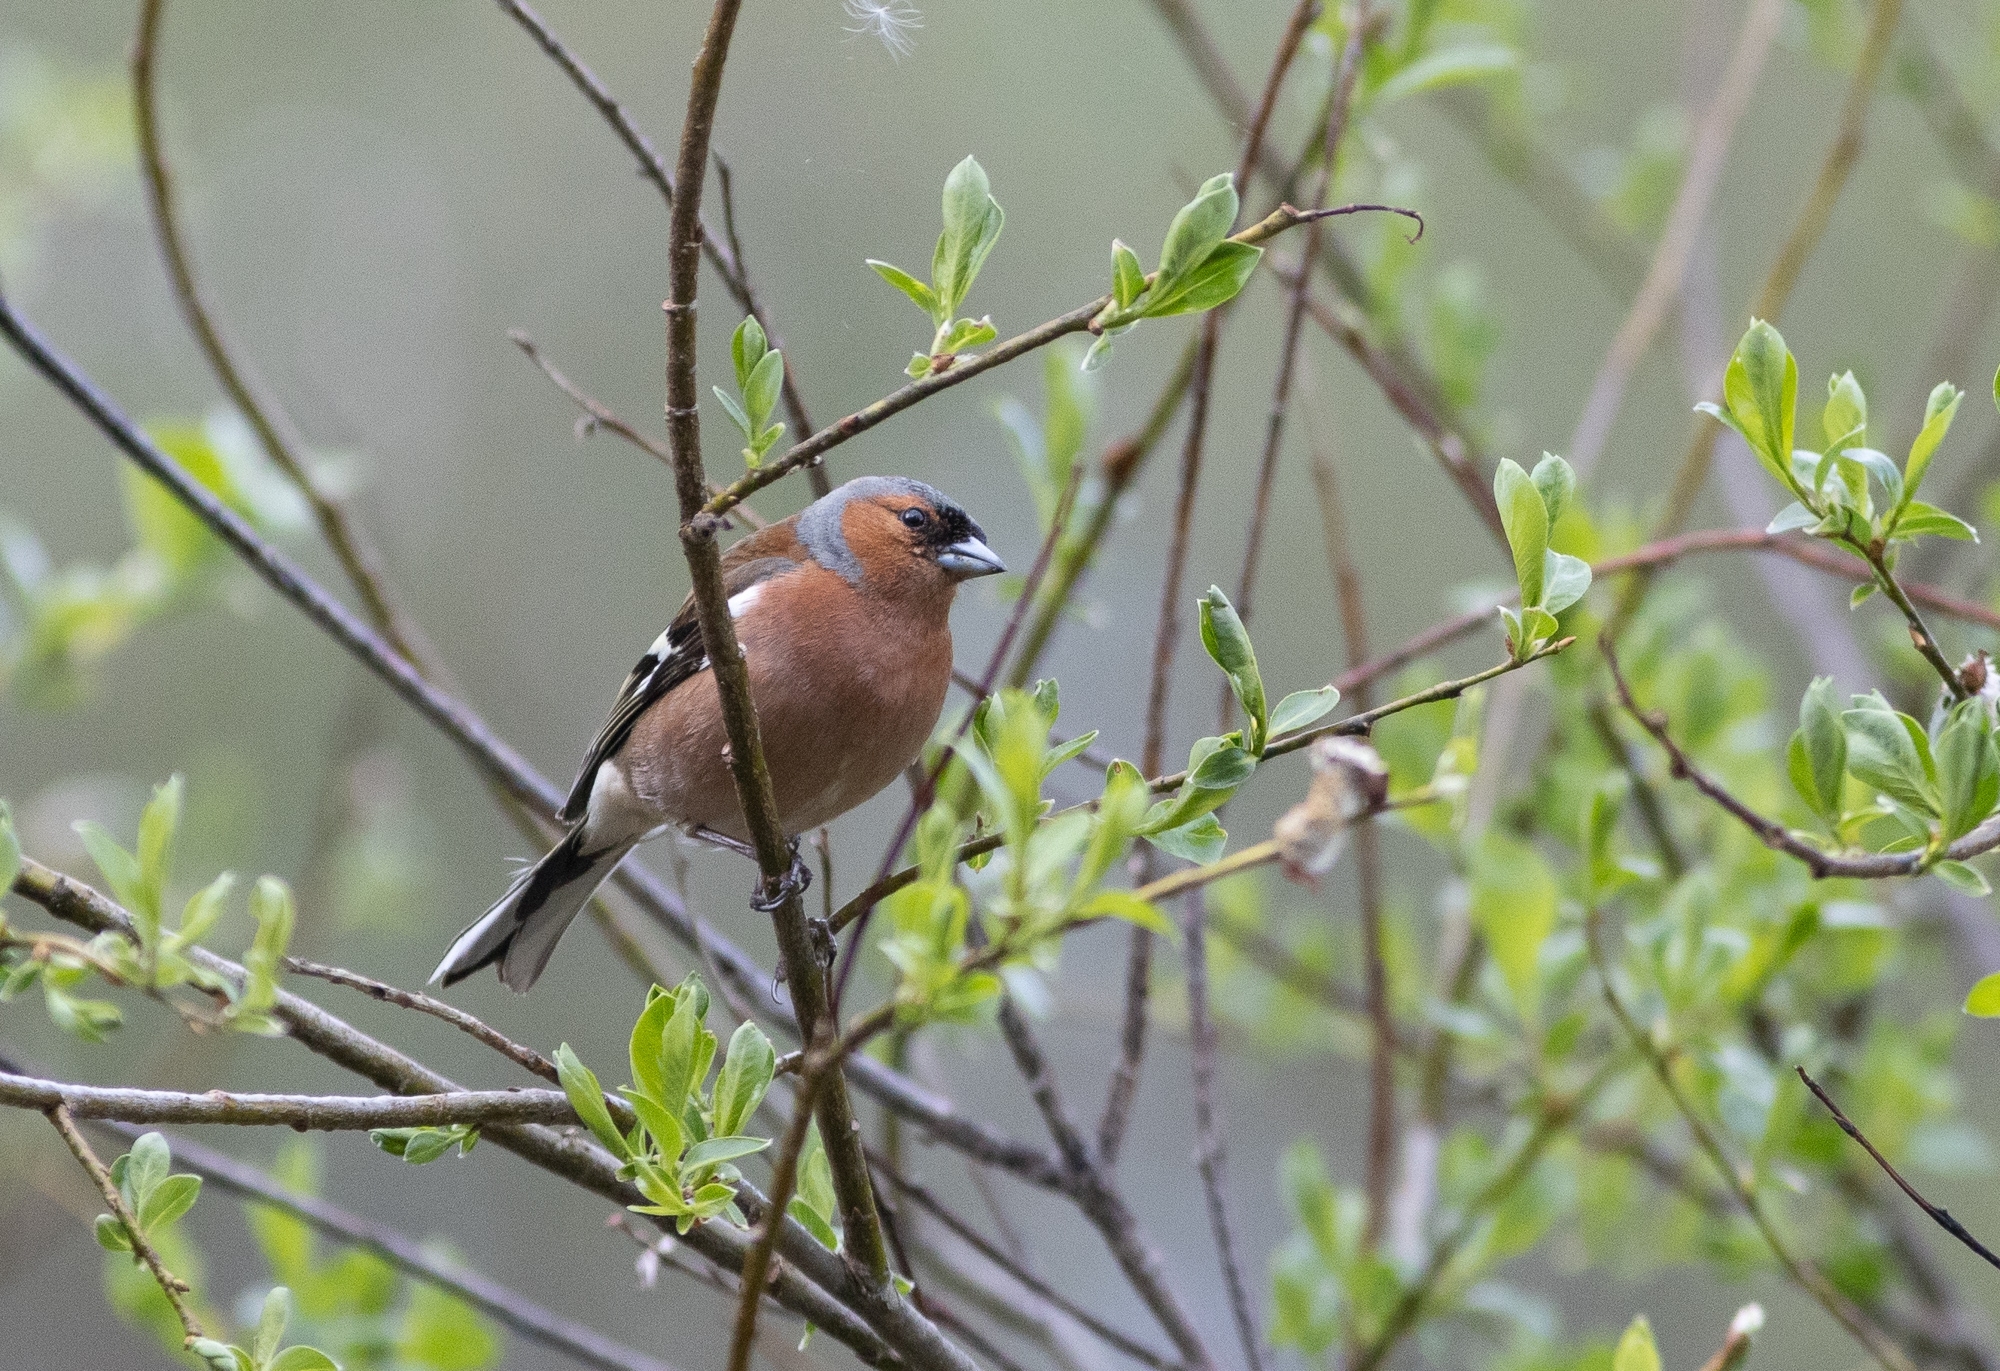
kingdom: Animalia
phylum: Chordata
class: Aves
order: Passeriformes
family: Fringillidae
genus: Fringilla
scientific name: Fringilla coelebs
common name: Common chaffinch
